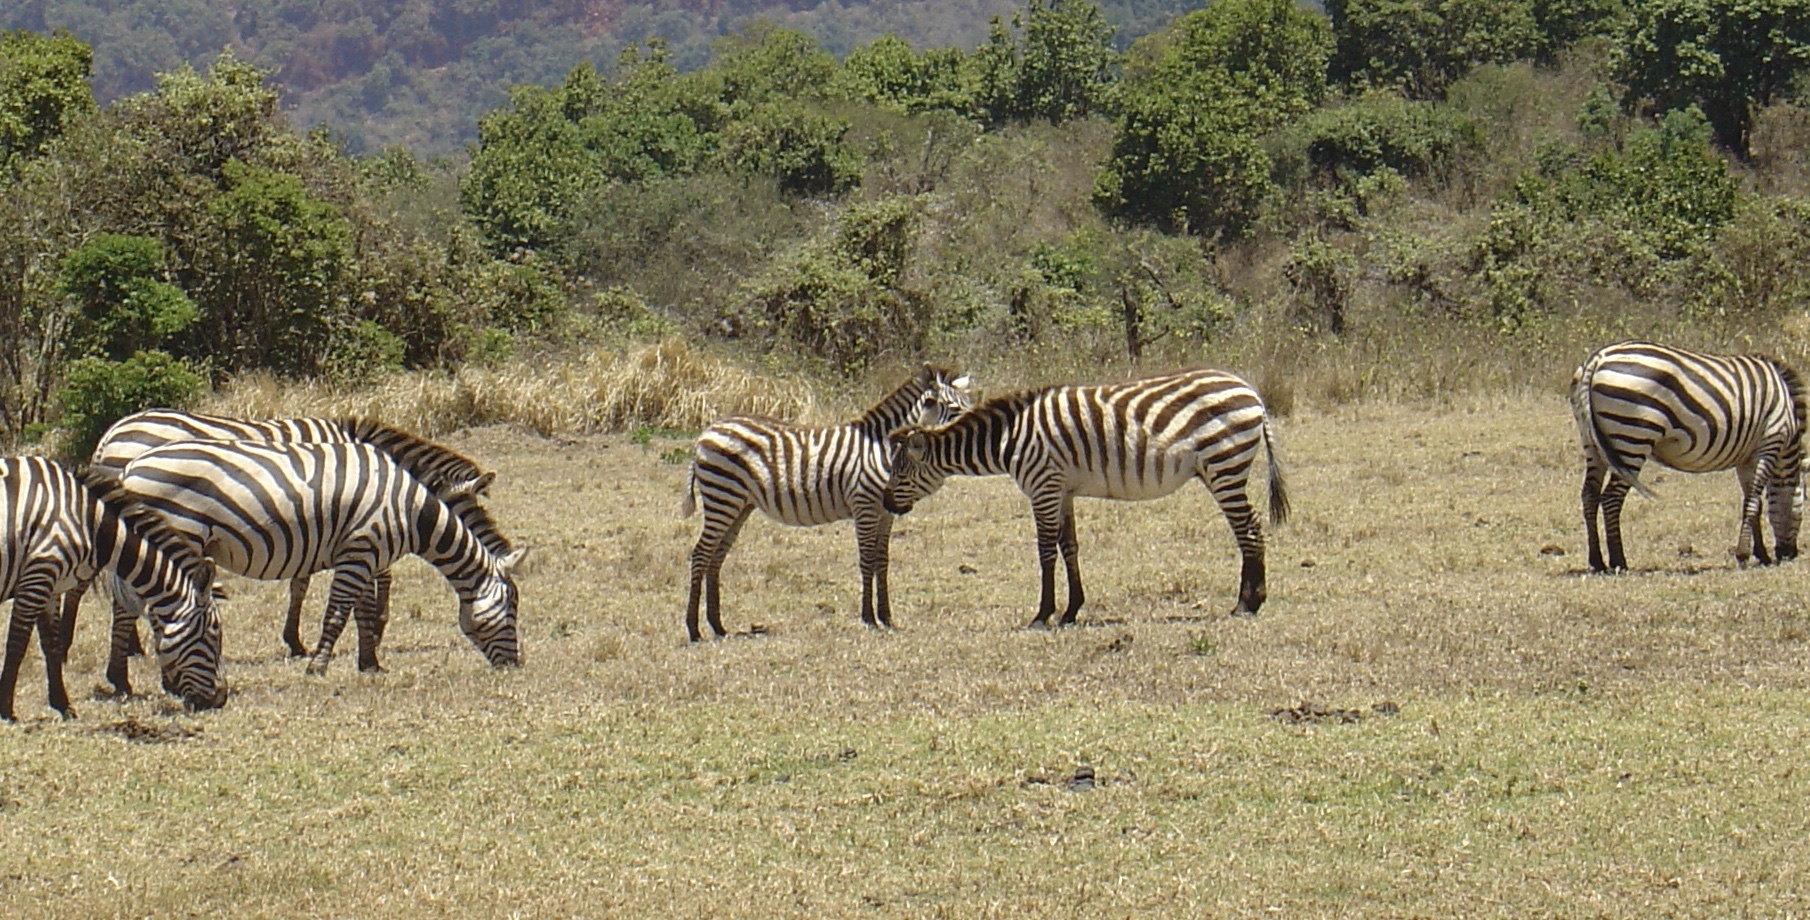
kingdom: Animalia
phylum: Chordata
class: Mammalia
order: Perissodactyla
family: Equidae
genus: Equus
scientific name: Equus quagga
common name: Plains zebra
